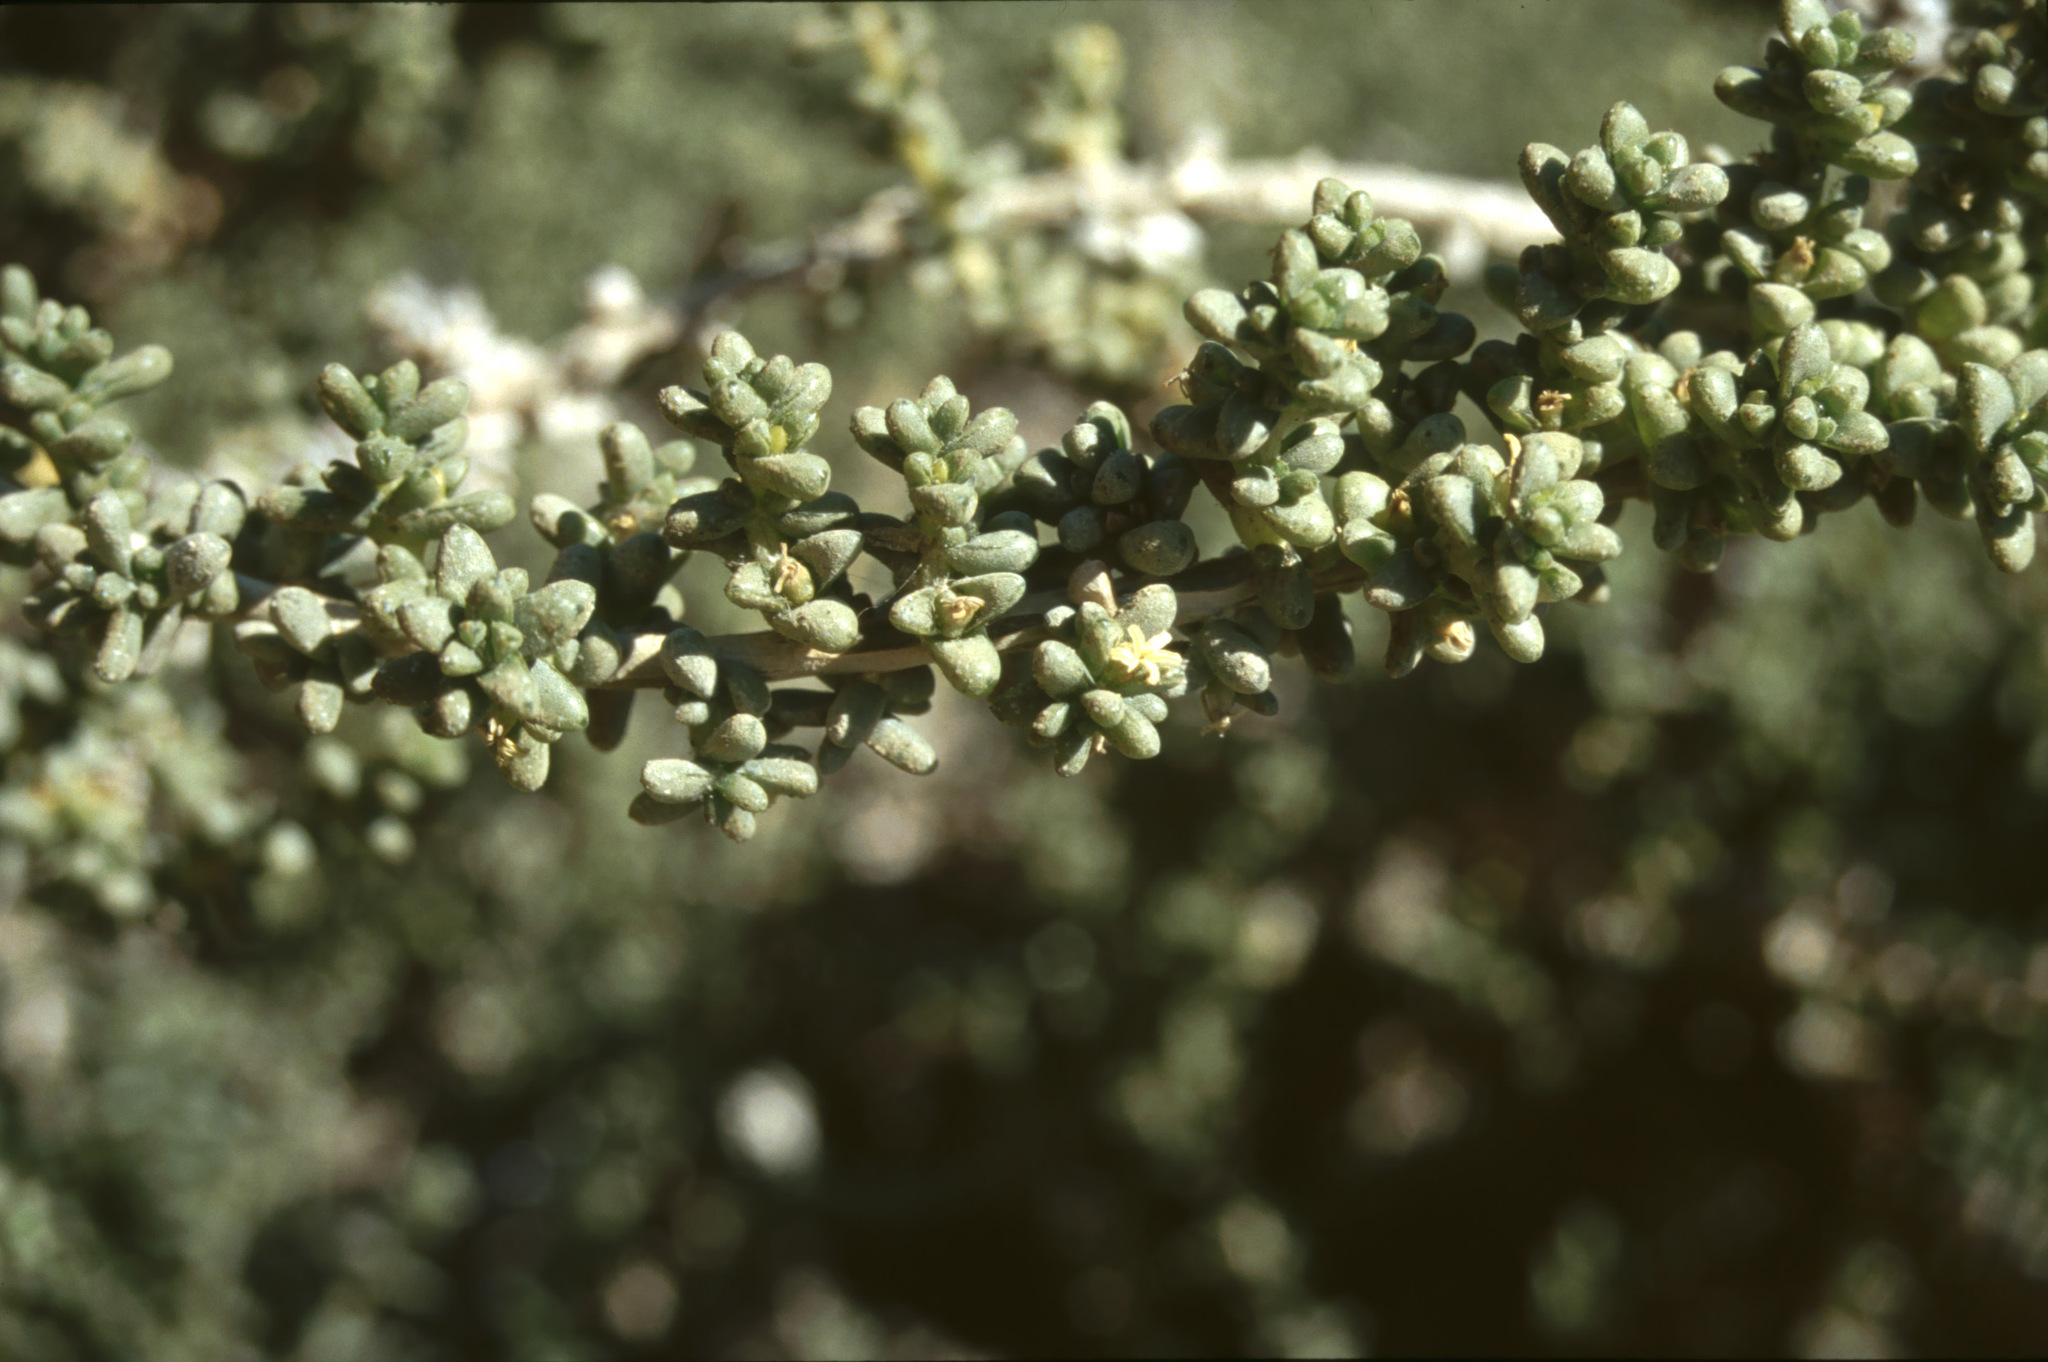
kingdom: Plantae
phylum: Tracheophyta
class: Magnoliopsida
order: Caryophyllales
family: Amaranthaceae
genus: Traganum
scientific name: Traganum moquinii
